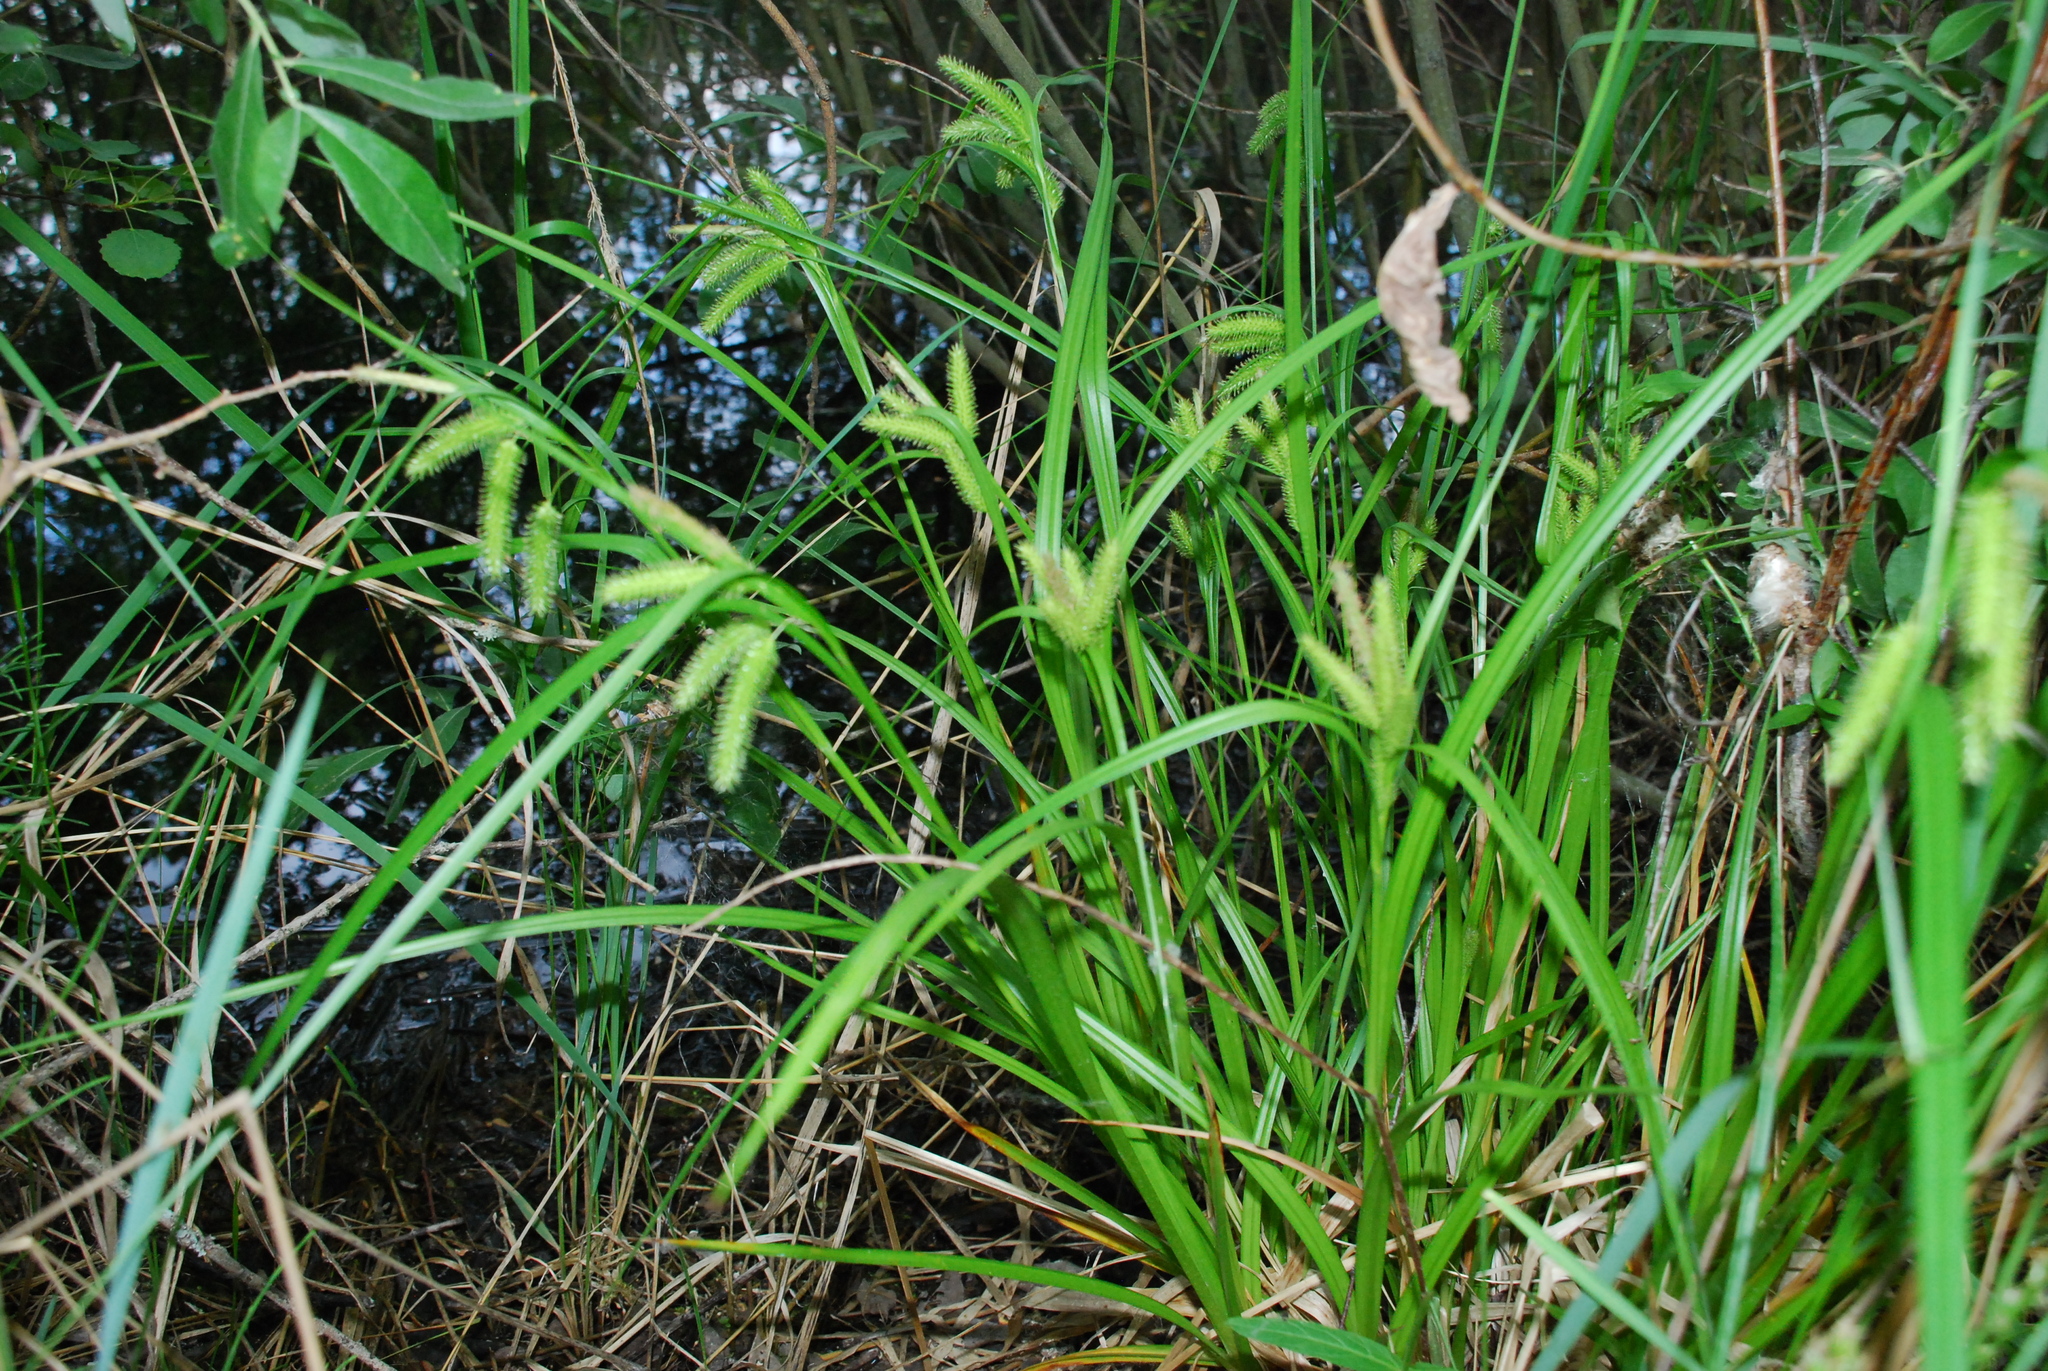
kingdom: Plantae
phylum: Tracheophyta
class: Liliopsida
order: Poales
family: Cyperaceae
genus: Carex
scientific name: Carex pseudocyperus
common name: Cyperus sedge
